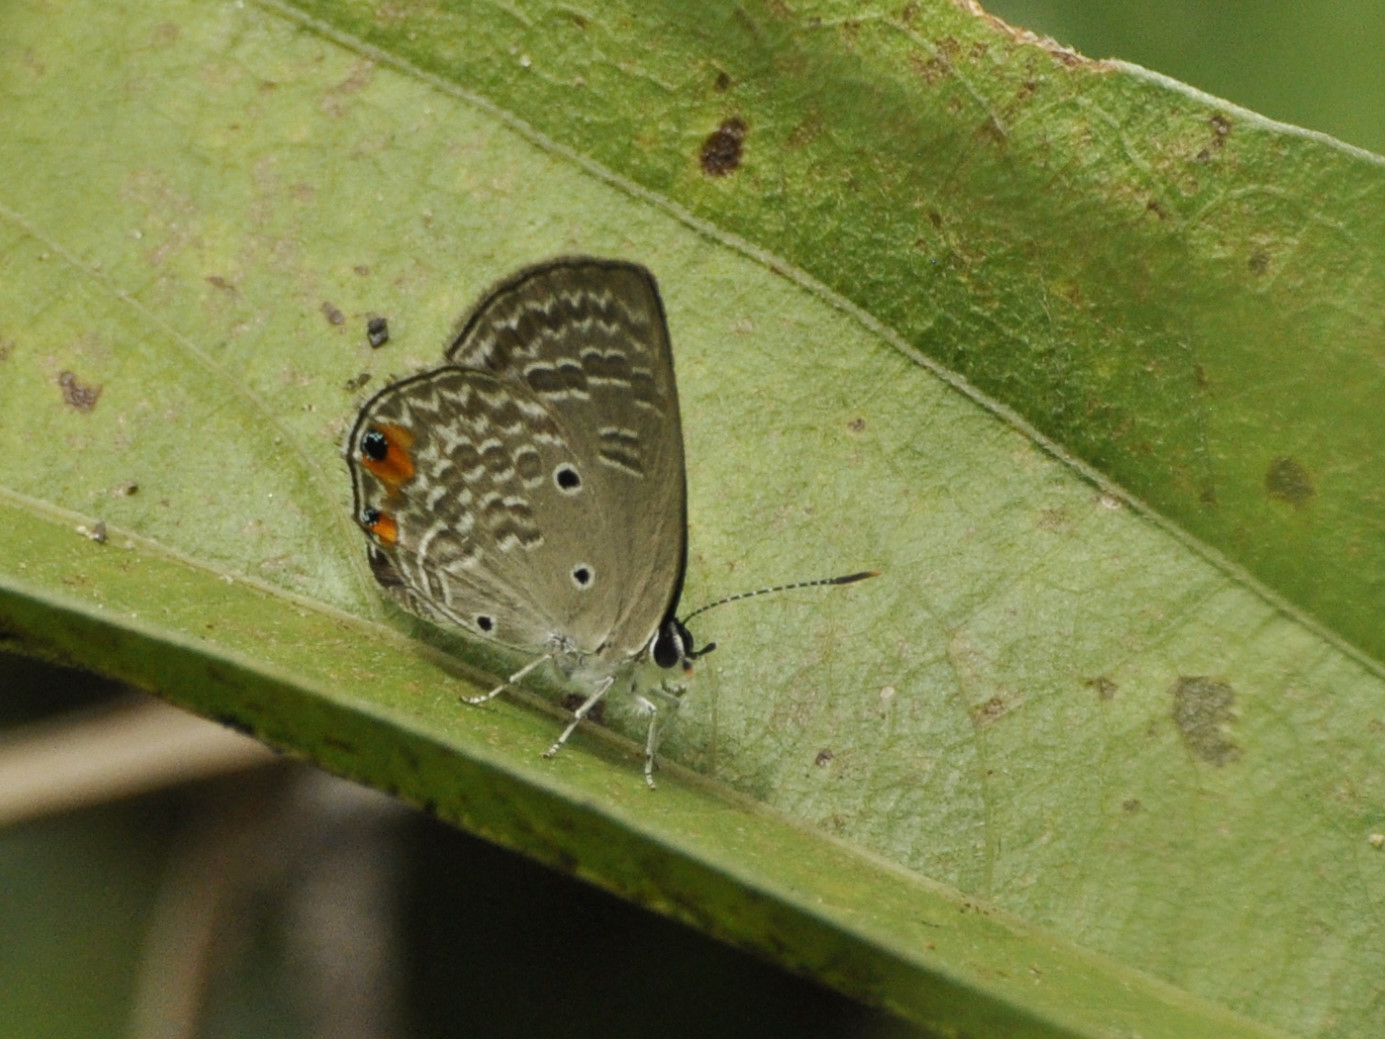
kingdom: Animalia
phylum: Arthropoda
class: Insecta
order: Lepidoptera
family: Lycaenidae
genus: Anthene
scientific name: Anthene lunulata
